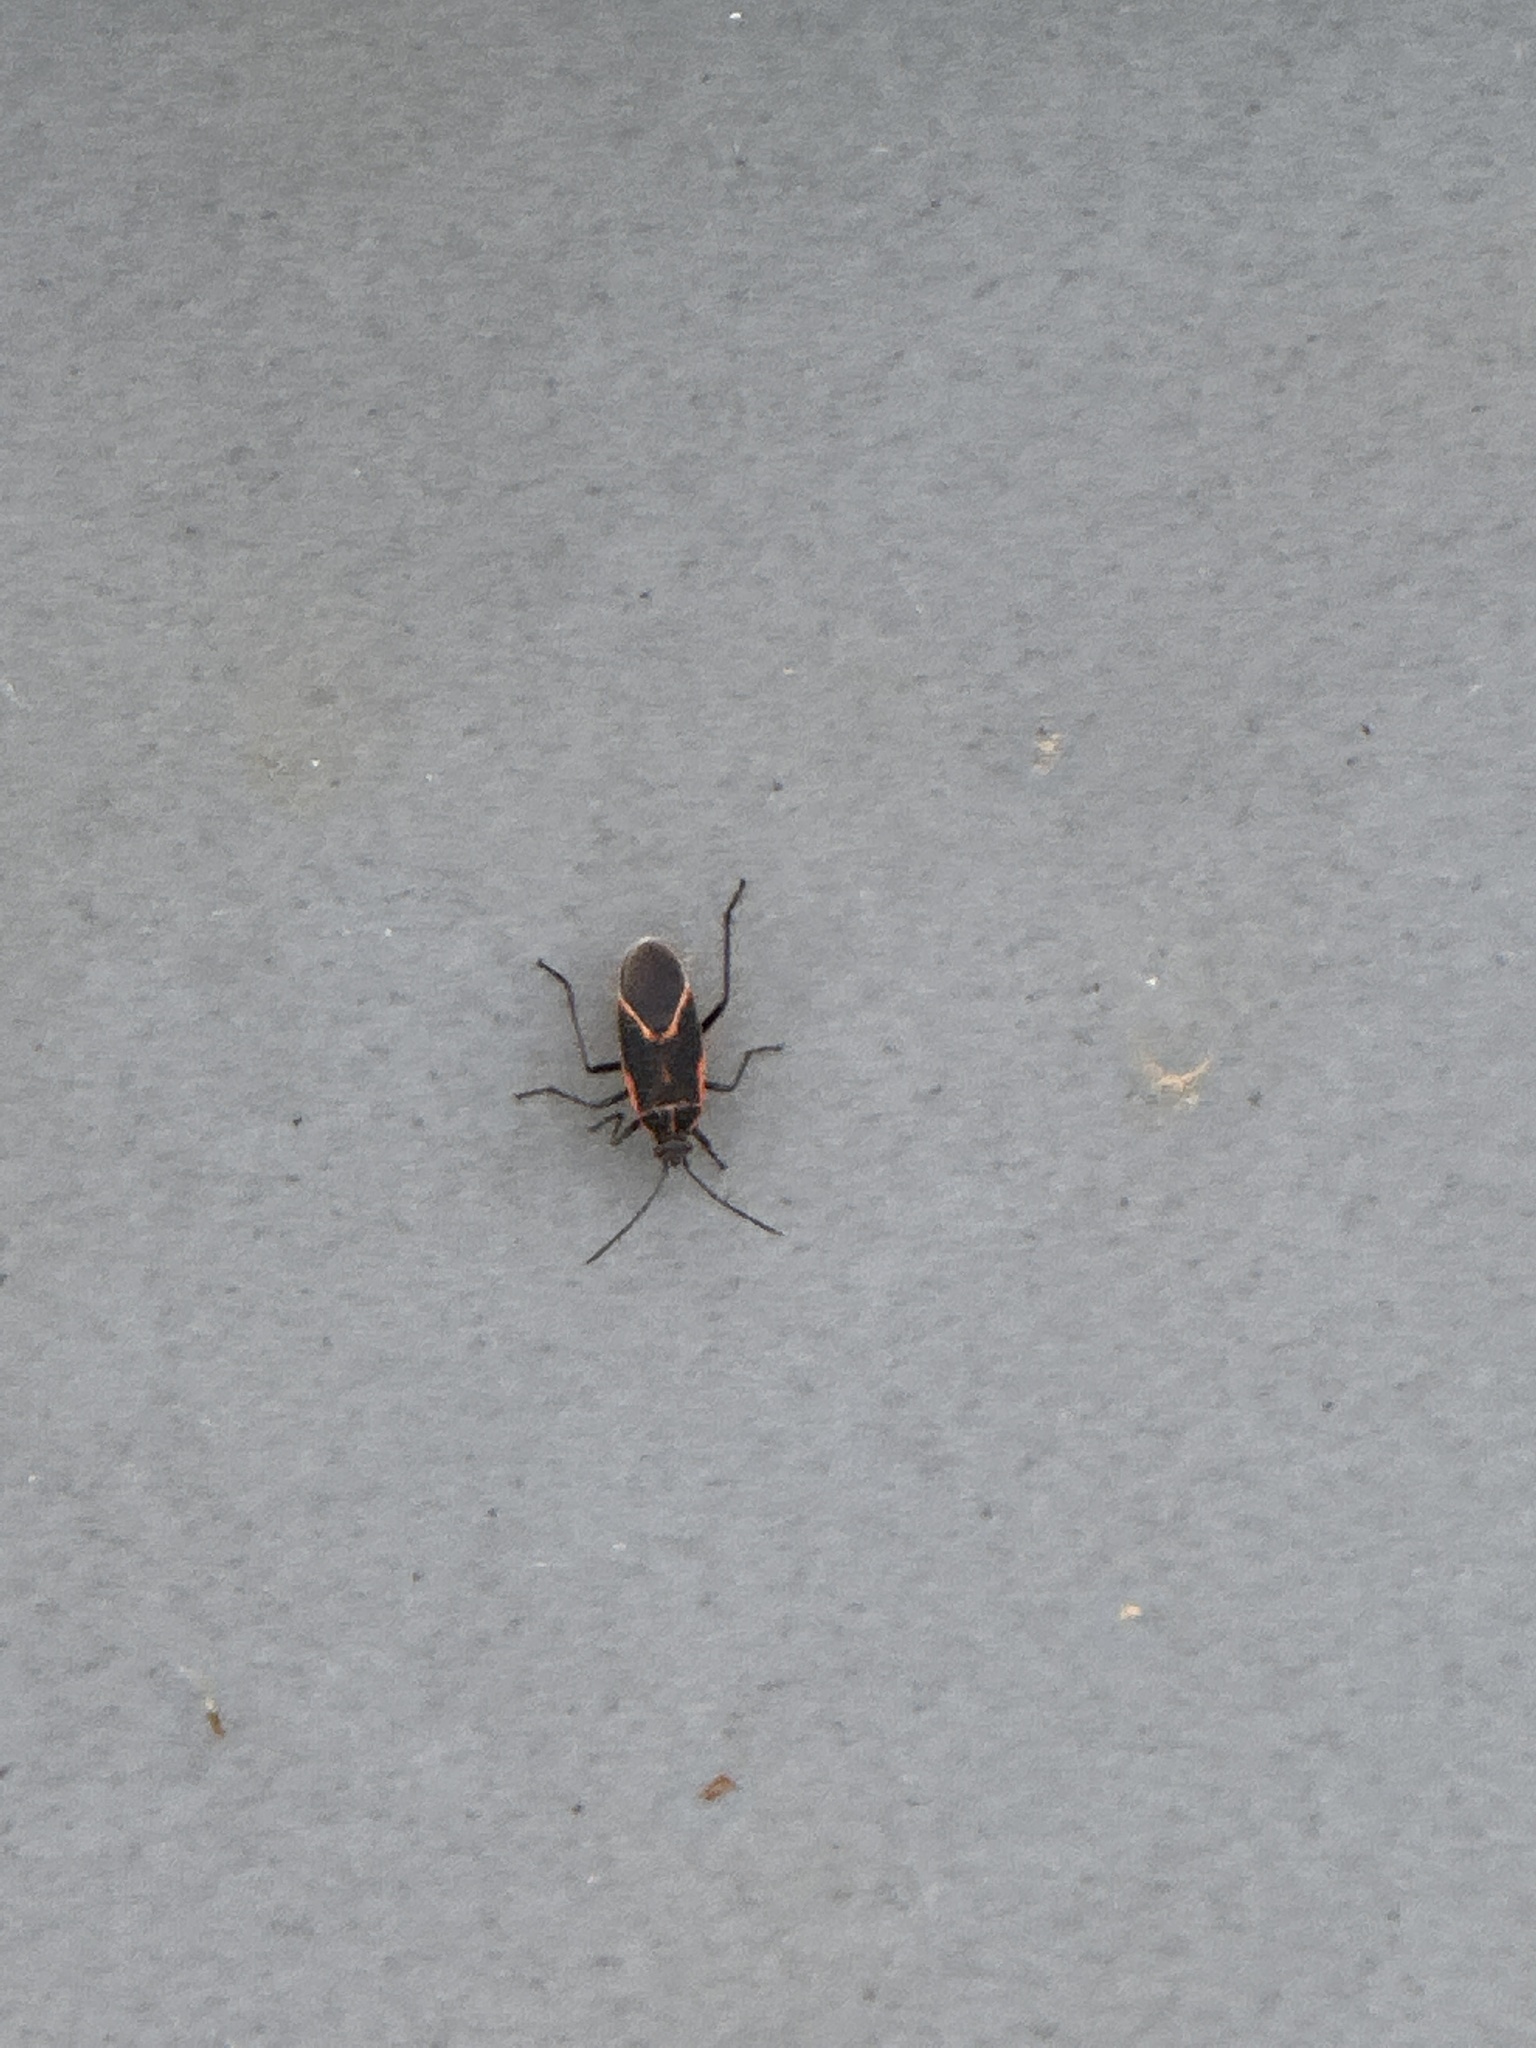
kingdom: Animalia
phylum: Arthropoda
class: Insecta
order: Hemiptera
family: Rhopalidae
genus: Boisea
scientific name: Boisea trivittata
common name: Boxelder bug
